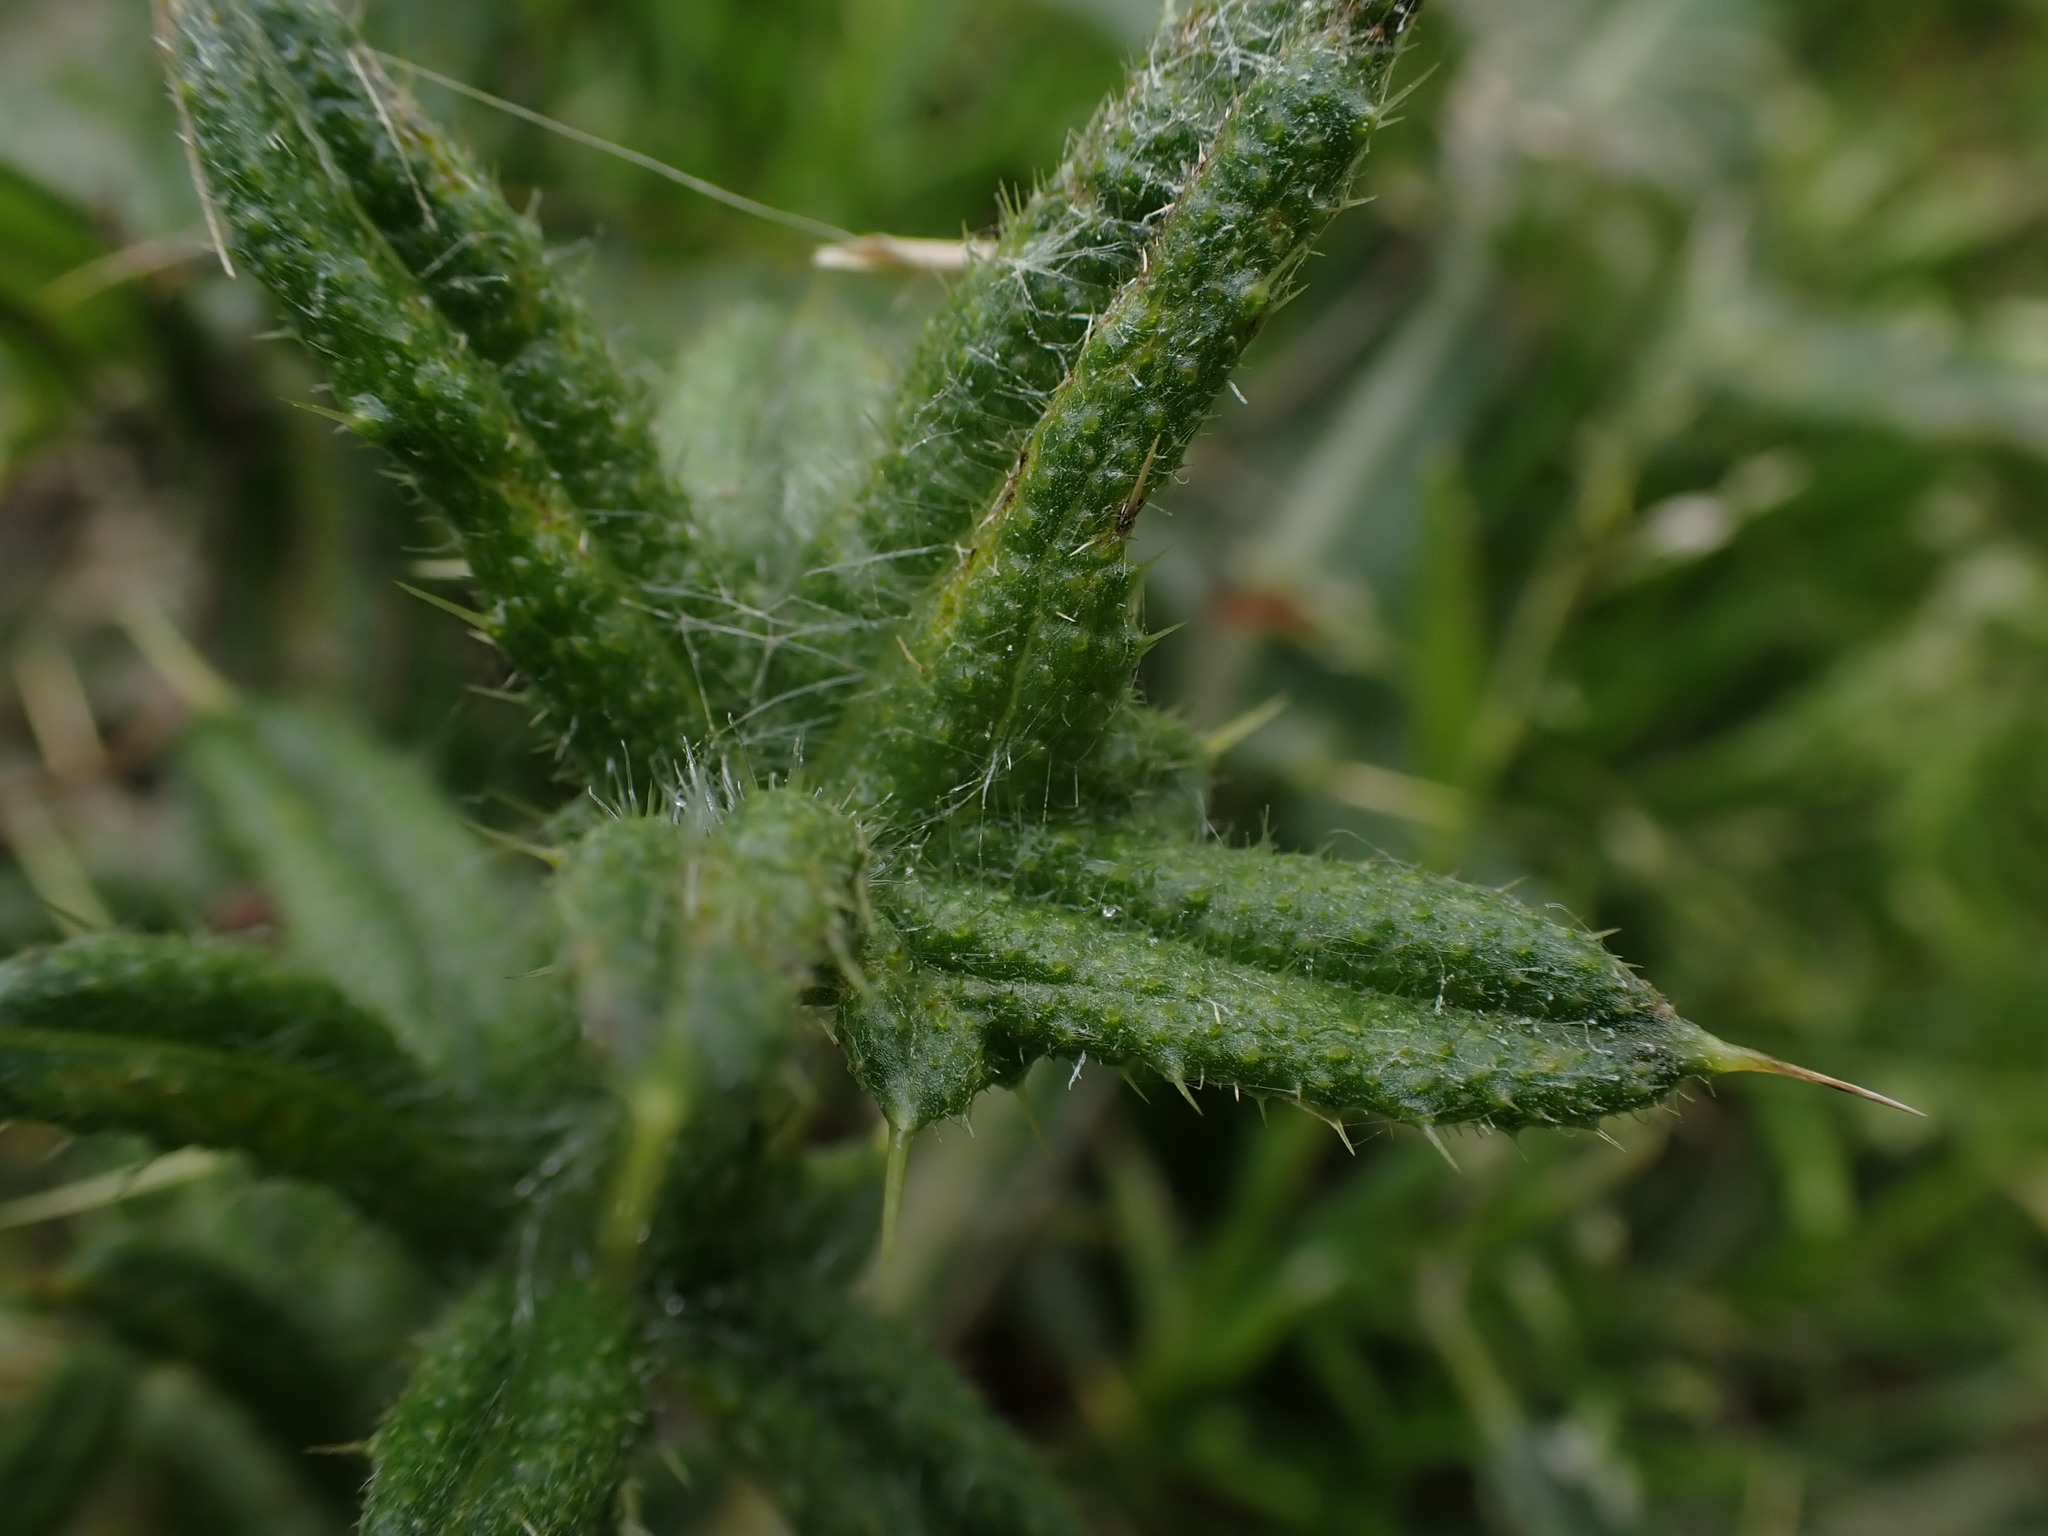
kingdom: Plantae
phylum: Tracheophyta
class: Magnoliopsida
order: Asterales
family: Asteraceae
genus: Cirsium
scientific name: Cirsium vulgare
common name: Bull thistle
